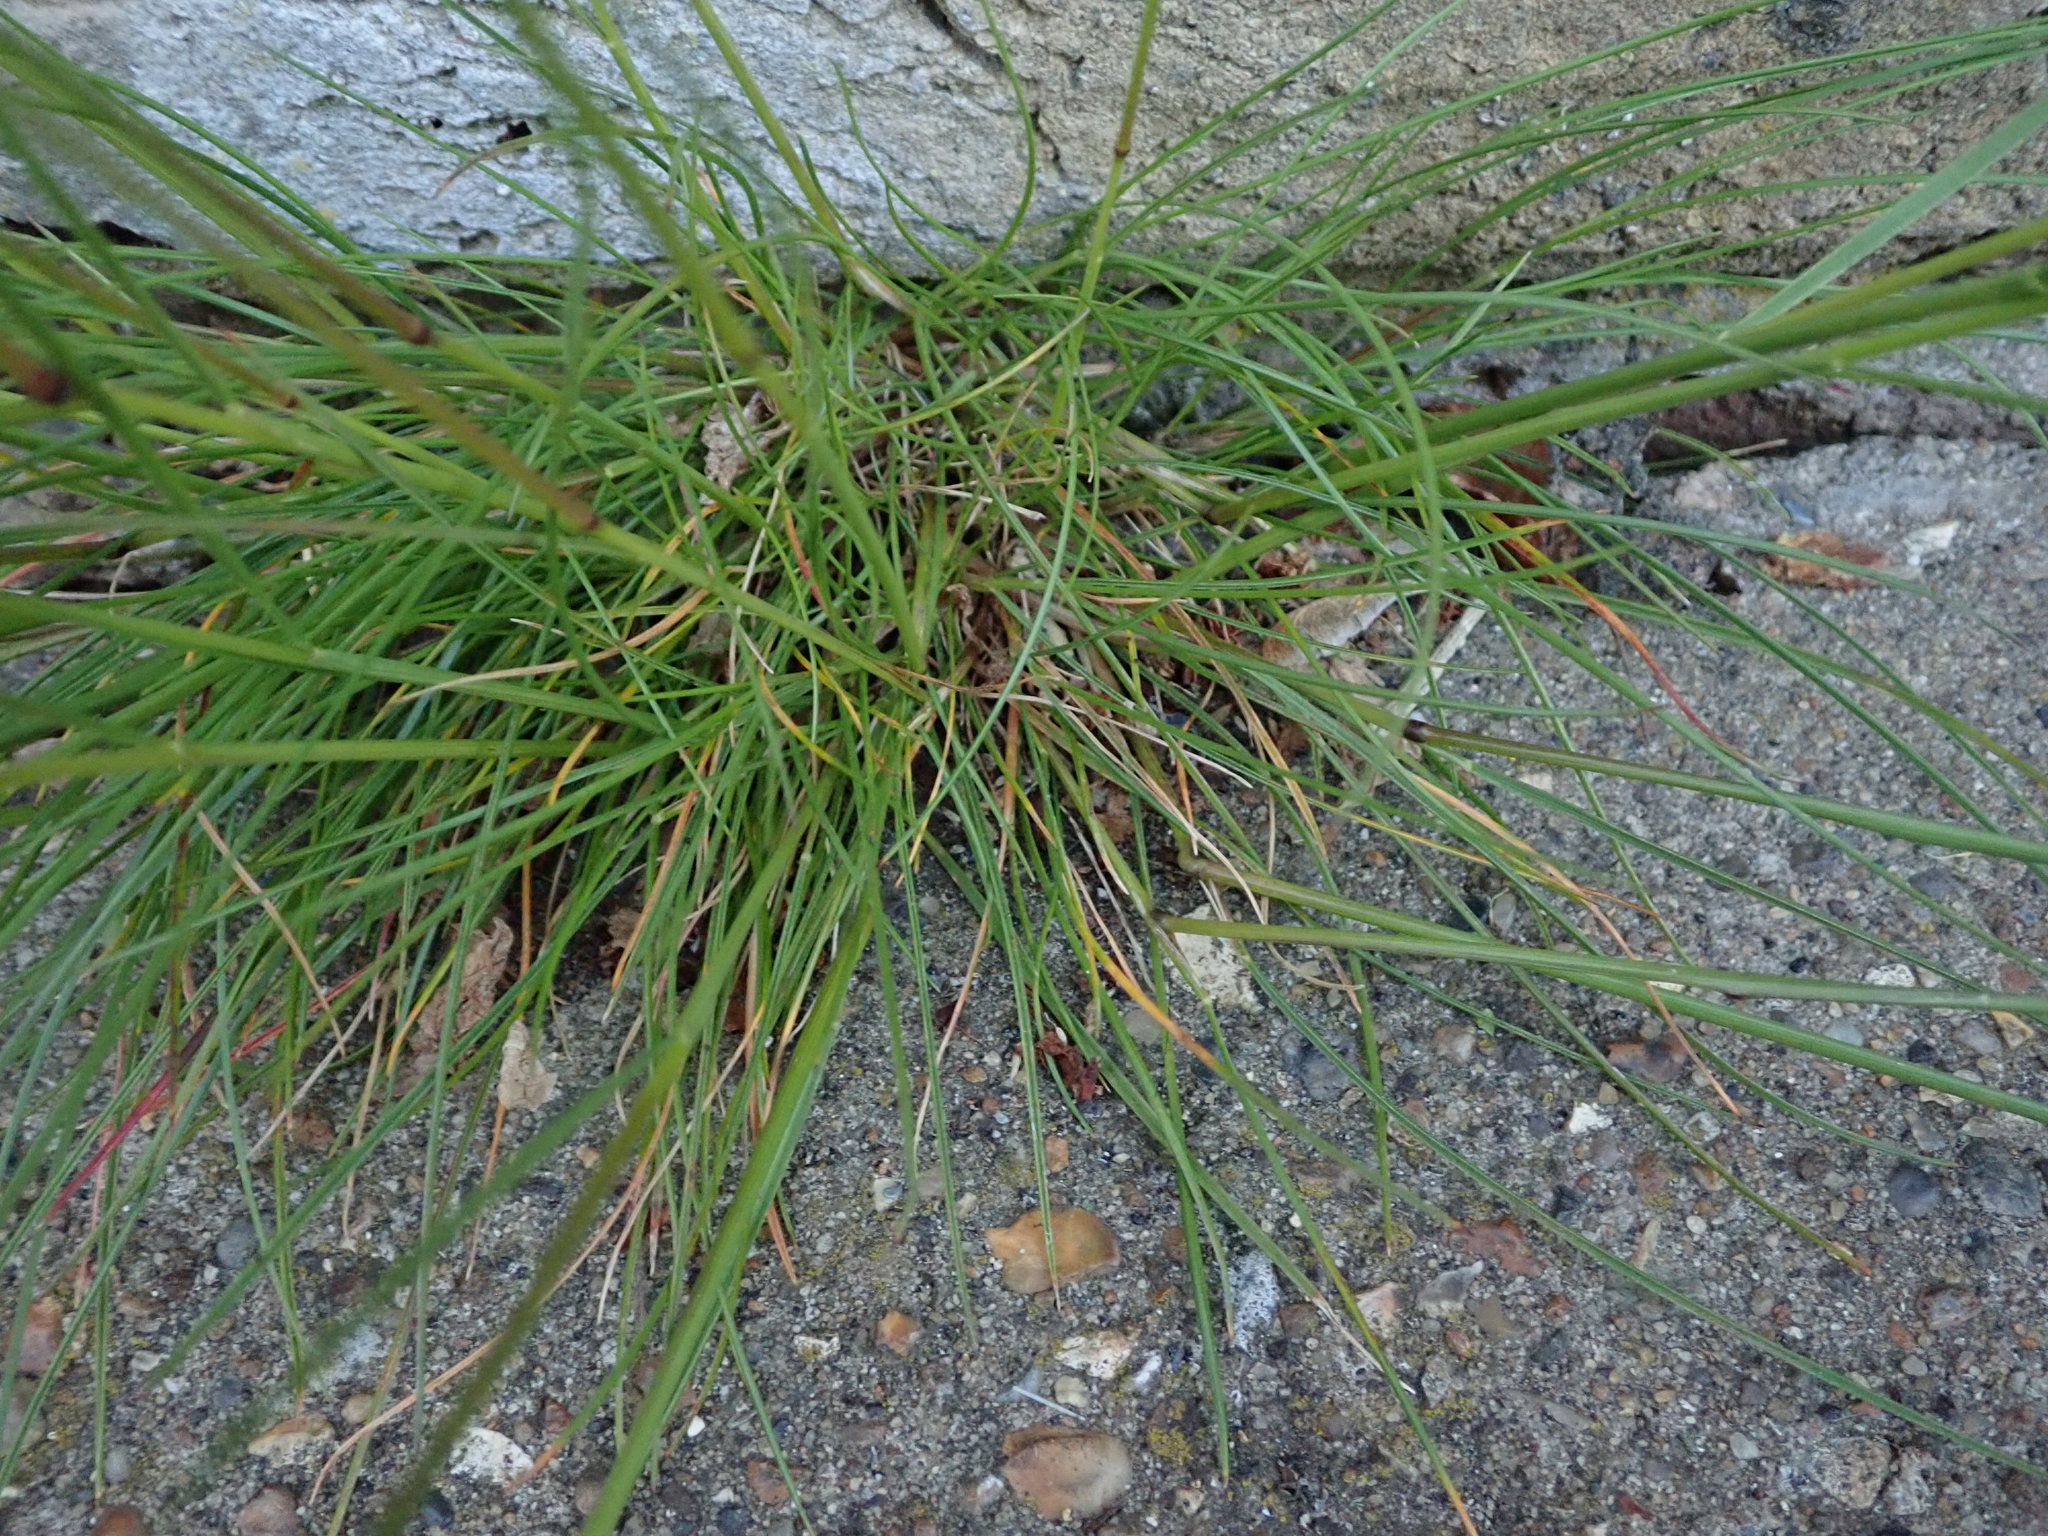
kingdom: Plantae
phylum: Tracheophyta
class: Liliopsida
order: Poales
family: Poaceae
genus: Festuca
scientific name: Festuca rubra
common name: Red fescue
